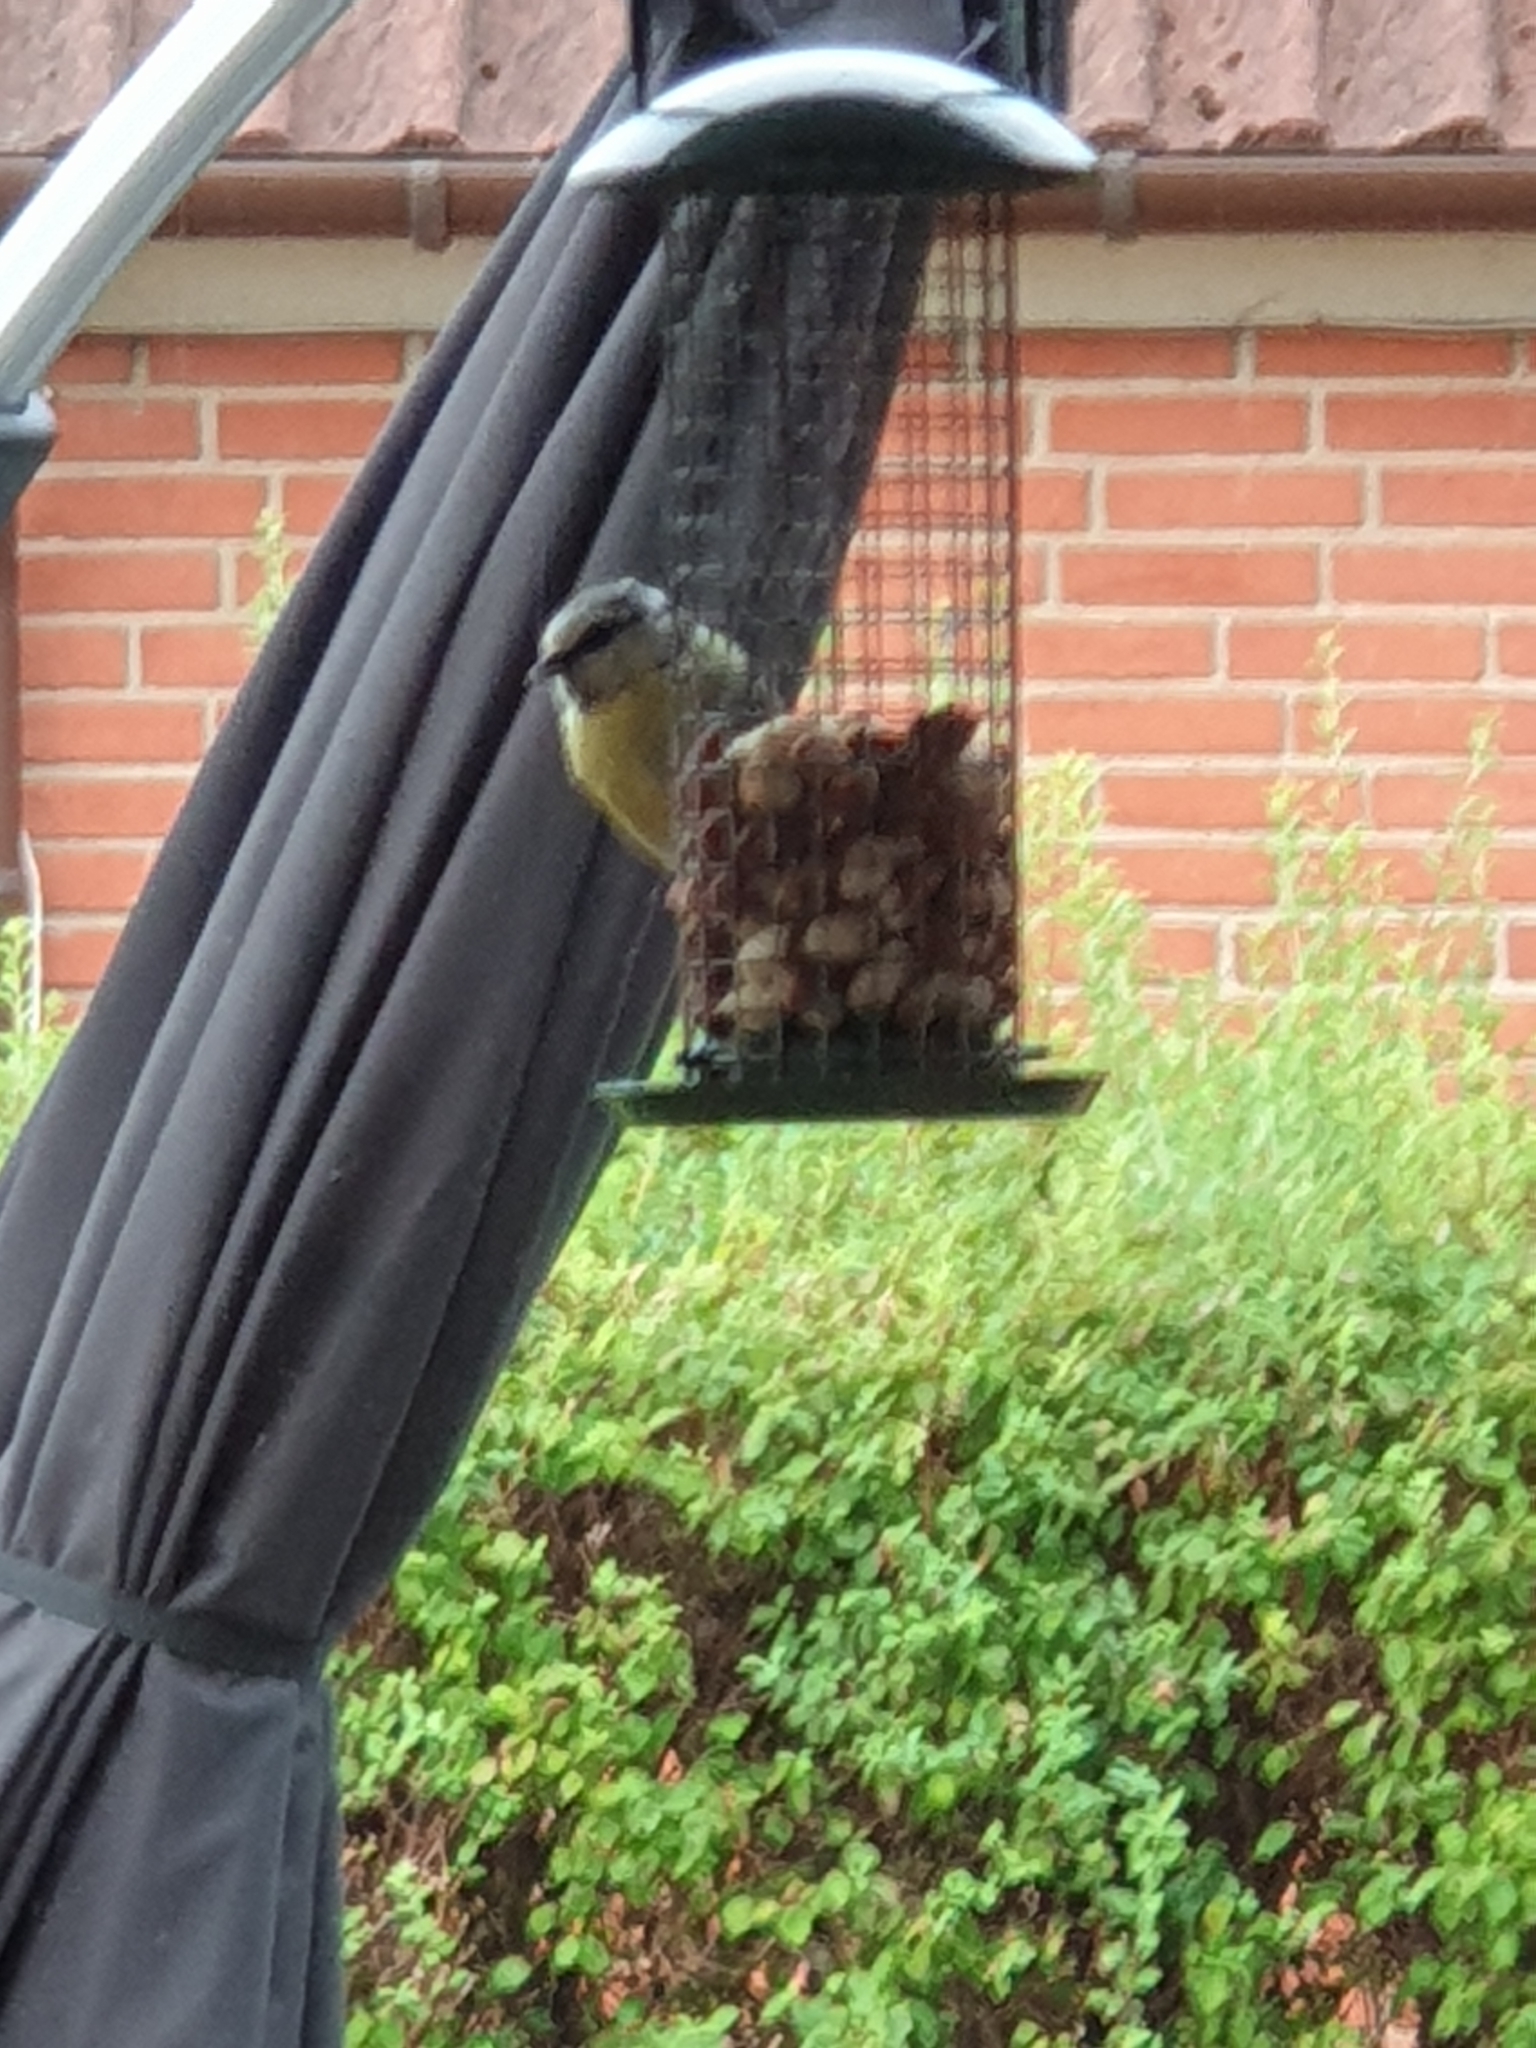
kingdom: Animalia
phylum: Chordata
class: Aves
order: Passeriformes
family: Paridae
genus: Cyanistes
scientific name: Cyanistes caeruleus
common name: Eurasian blue tit
